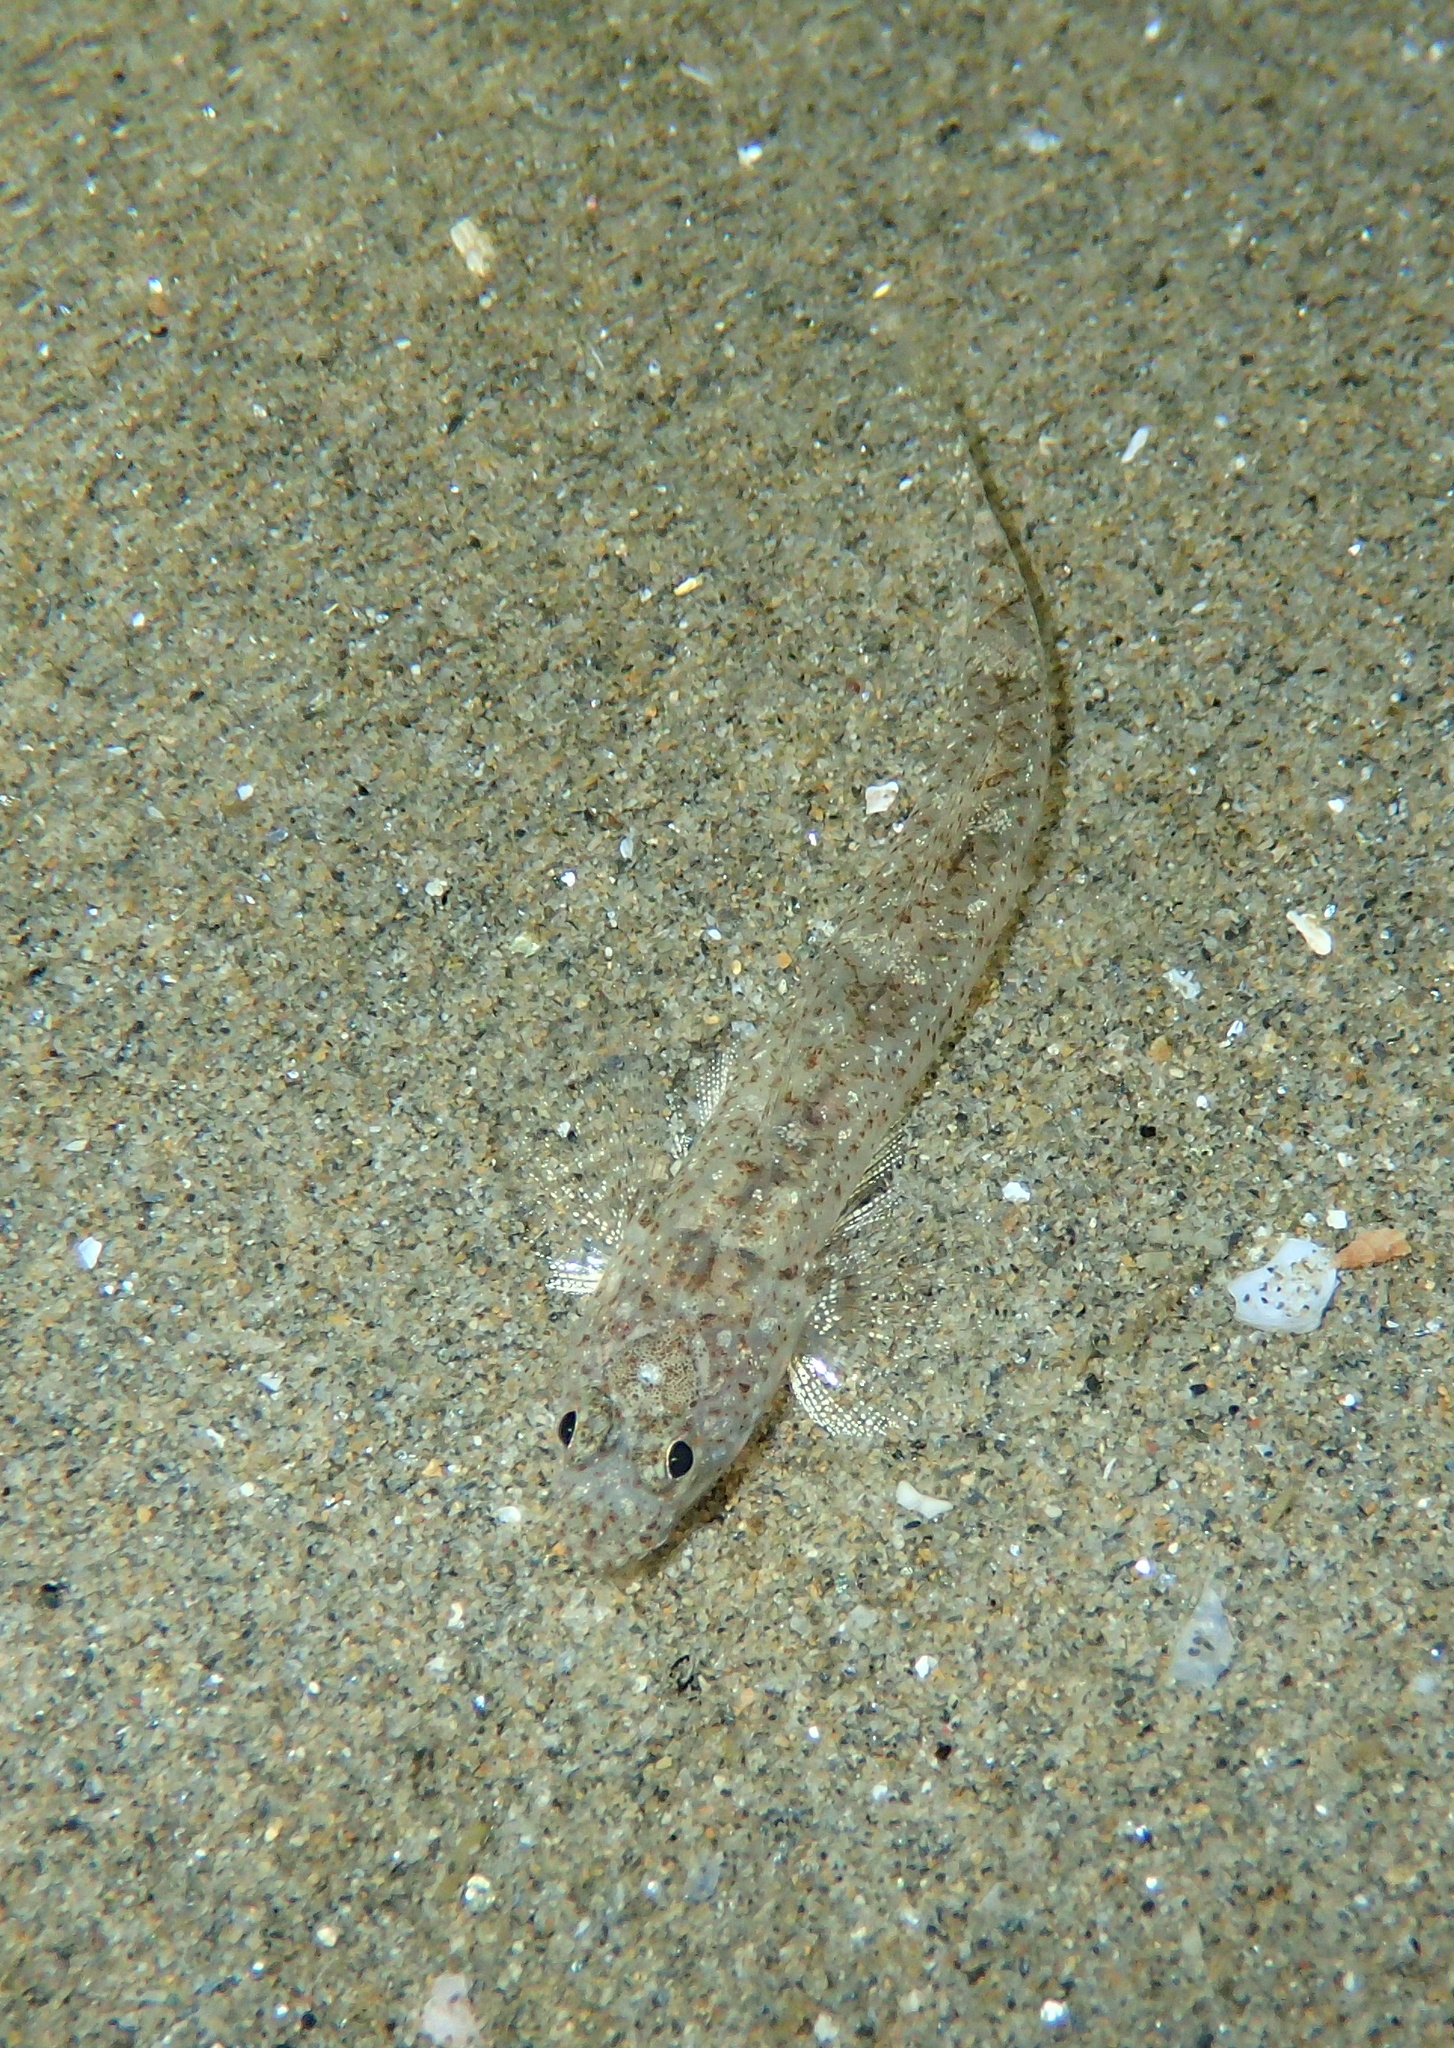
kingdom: Animalia
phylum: Chordata
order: Perciformes
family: Gobiidae
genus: Pomatoschistus
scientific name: Pomatoschistus marmoratus
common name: Marbled goby
